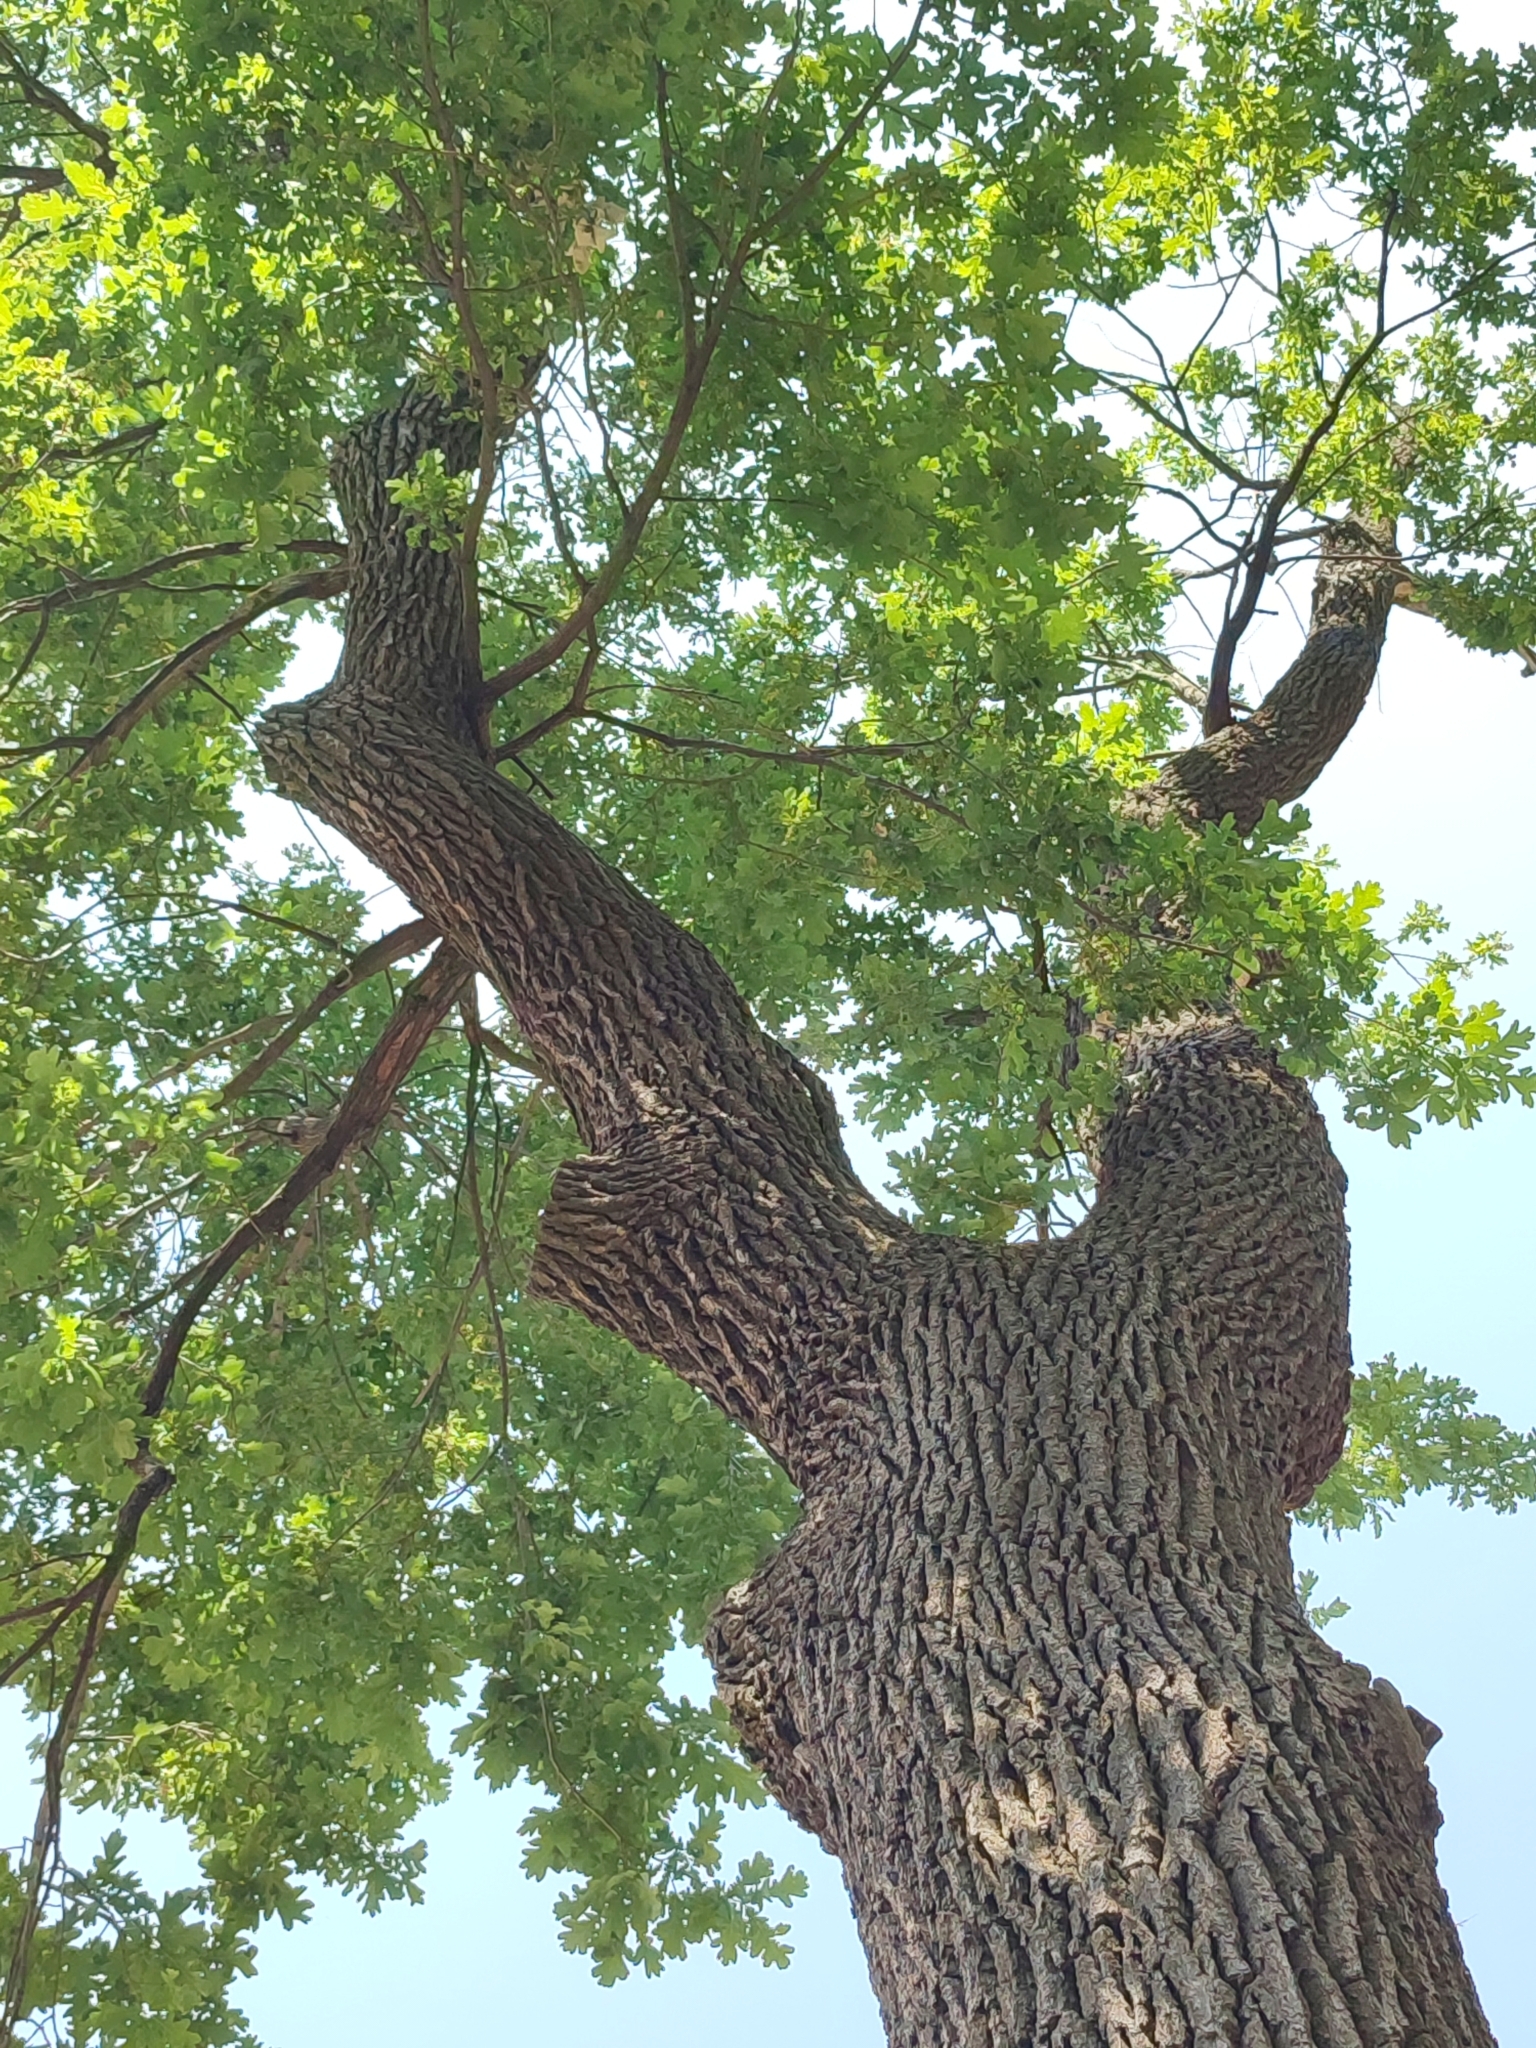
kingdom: Plantae
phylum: Tracheophyta
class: Magnoliopsida
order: Fagales
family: Fagaceae
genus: Quercus
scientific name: Quercus robur
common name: Pedunculate oak
